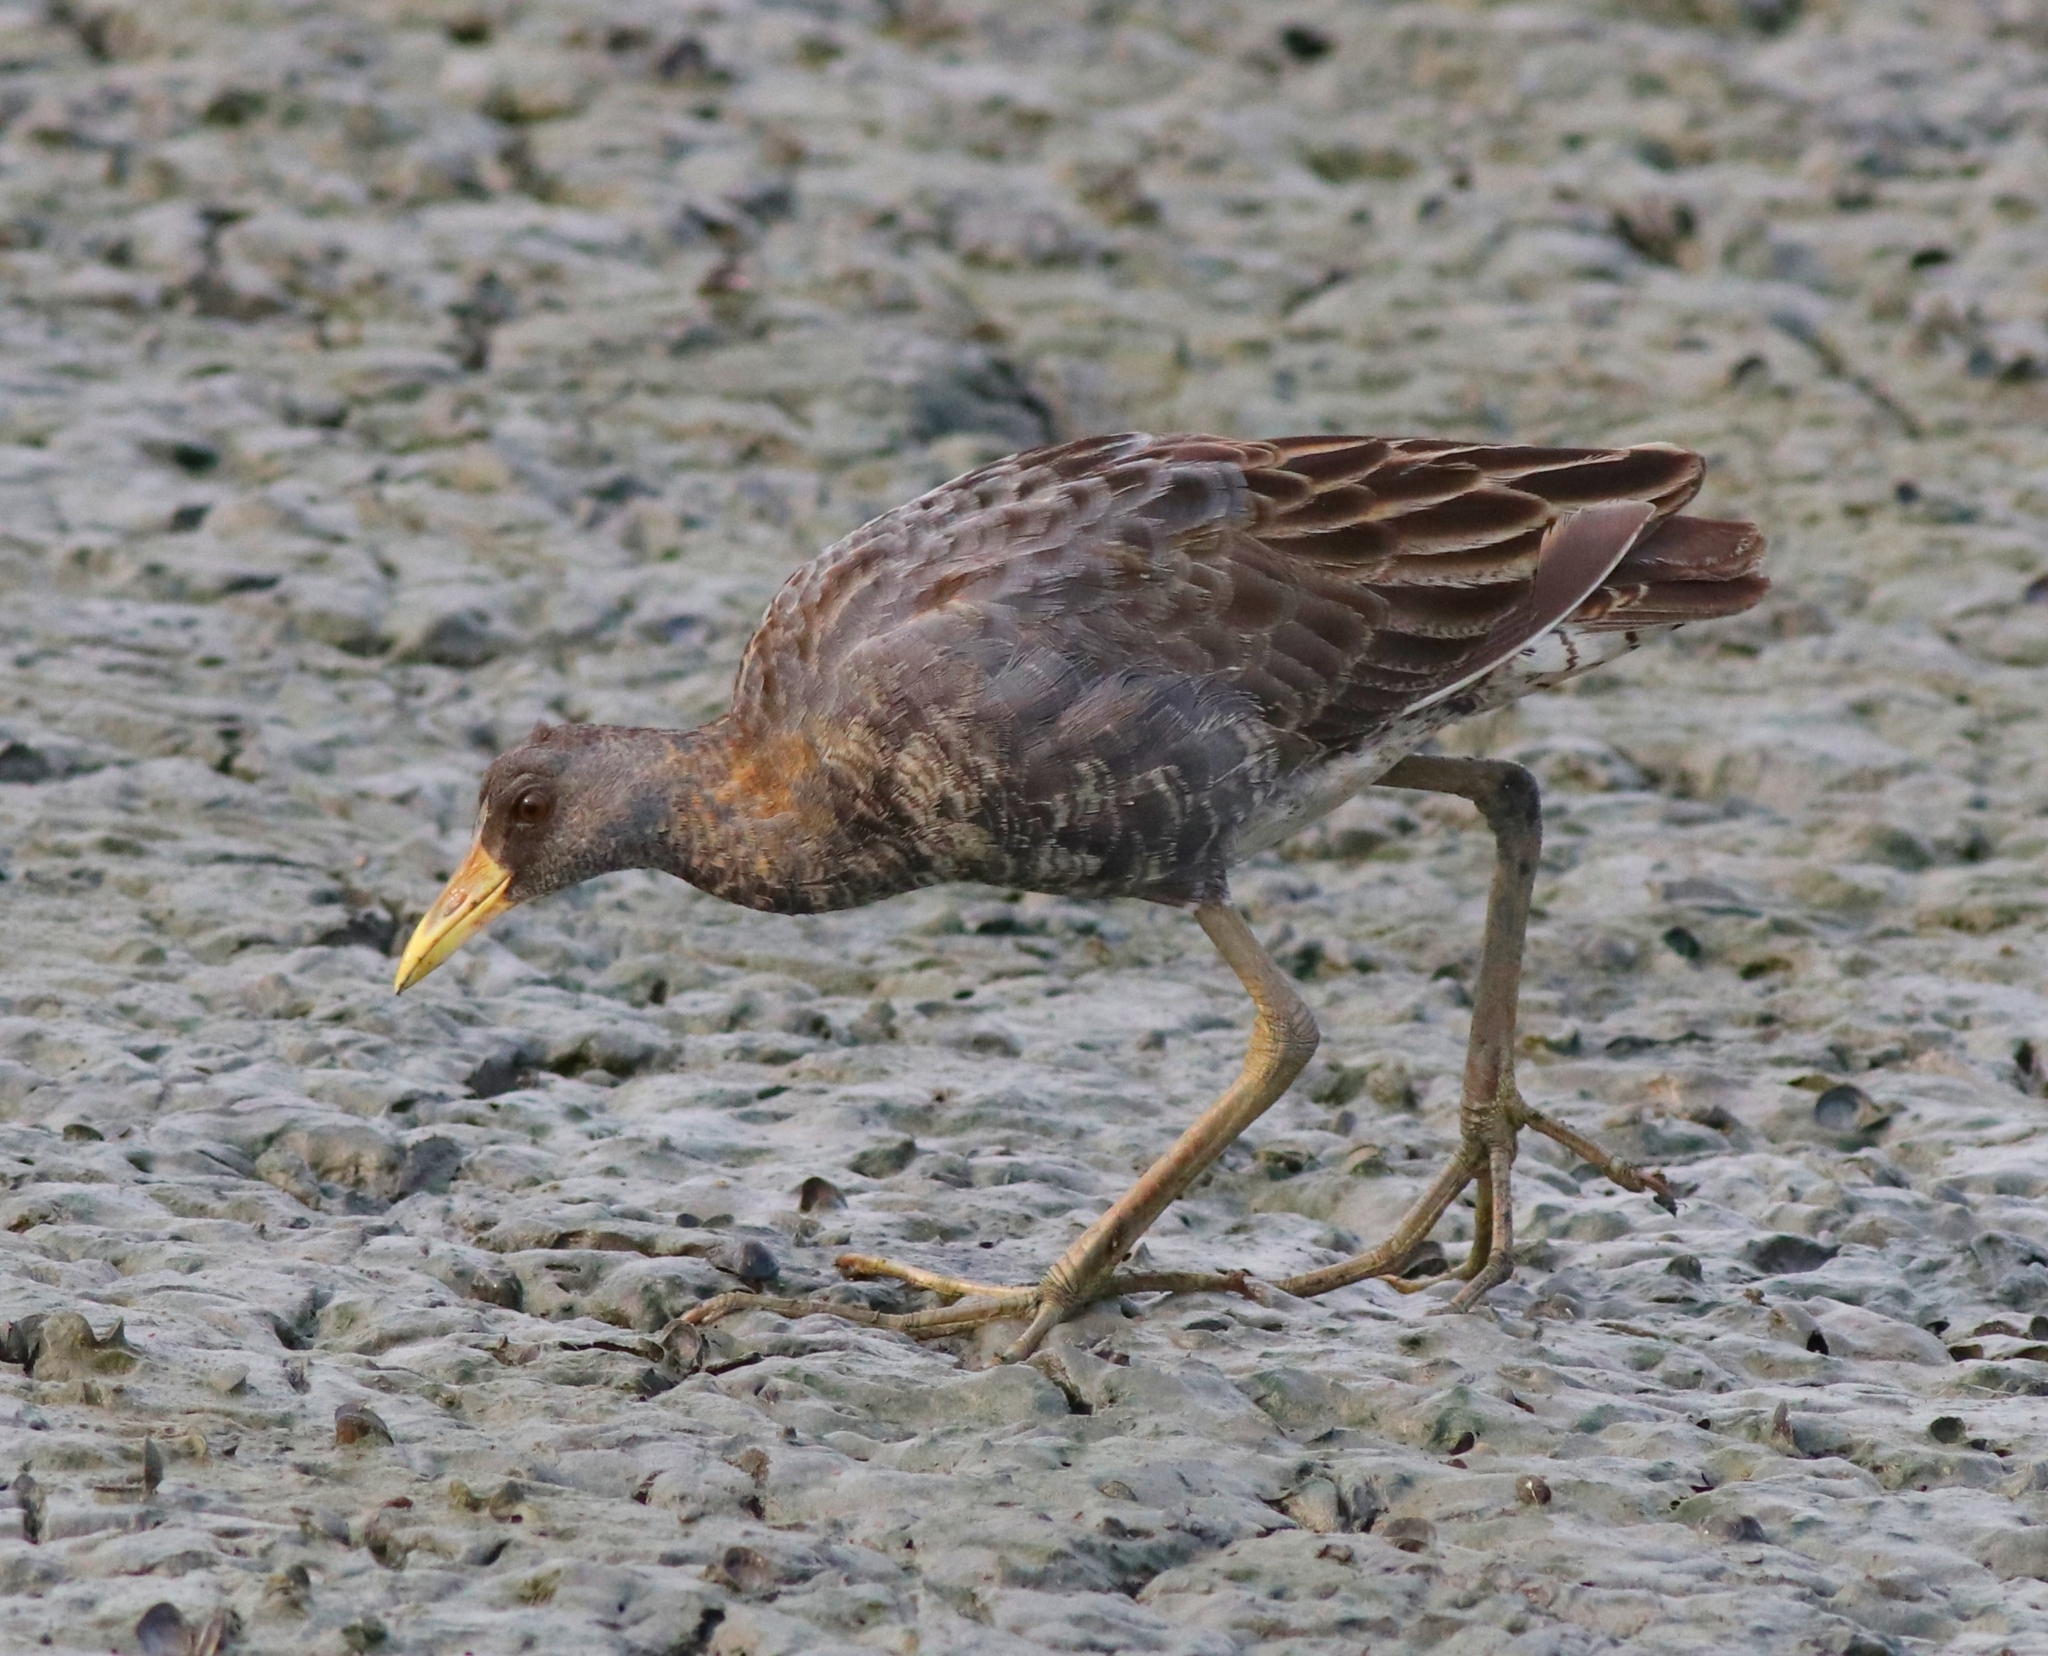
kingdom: Animalia
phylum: Chordata
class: Aves
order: Gruiformes
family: Rallidae
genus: Gallicrex
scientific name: Gallicrex cinerea
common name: Watercock
